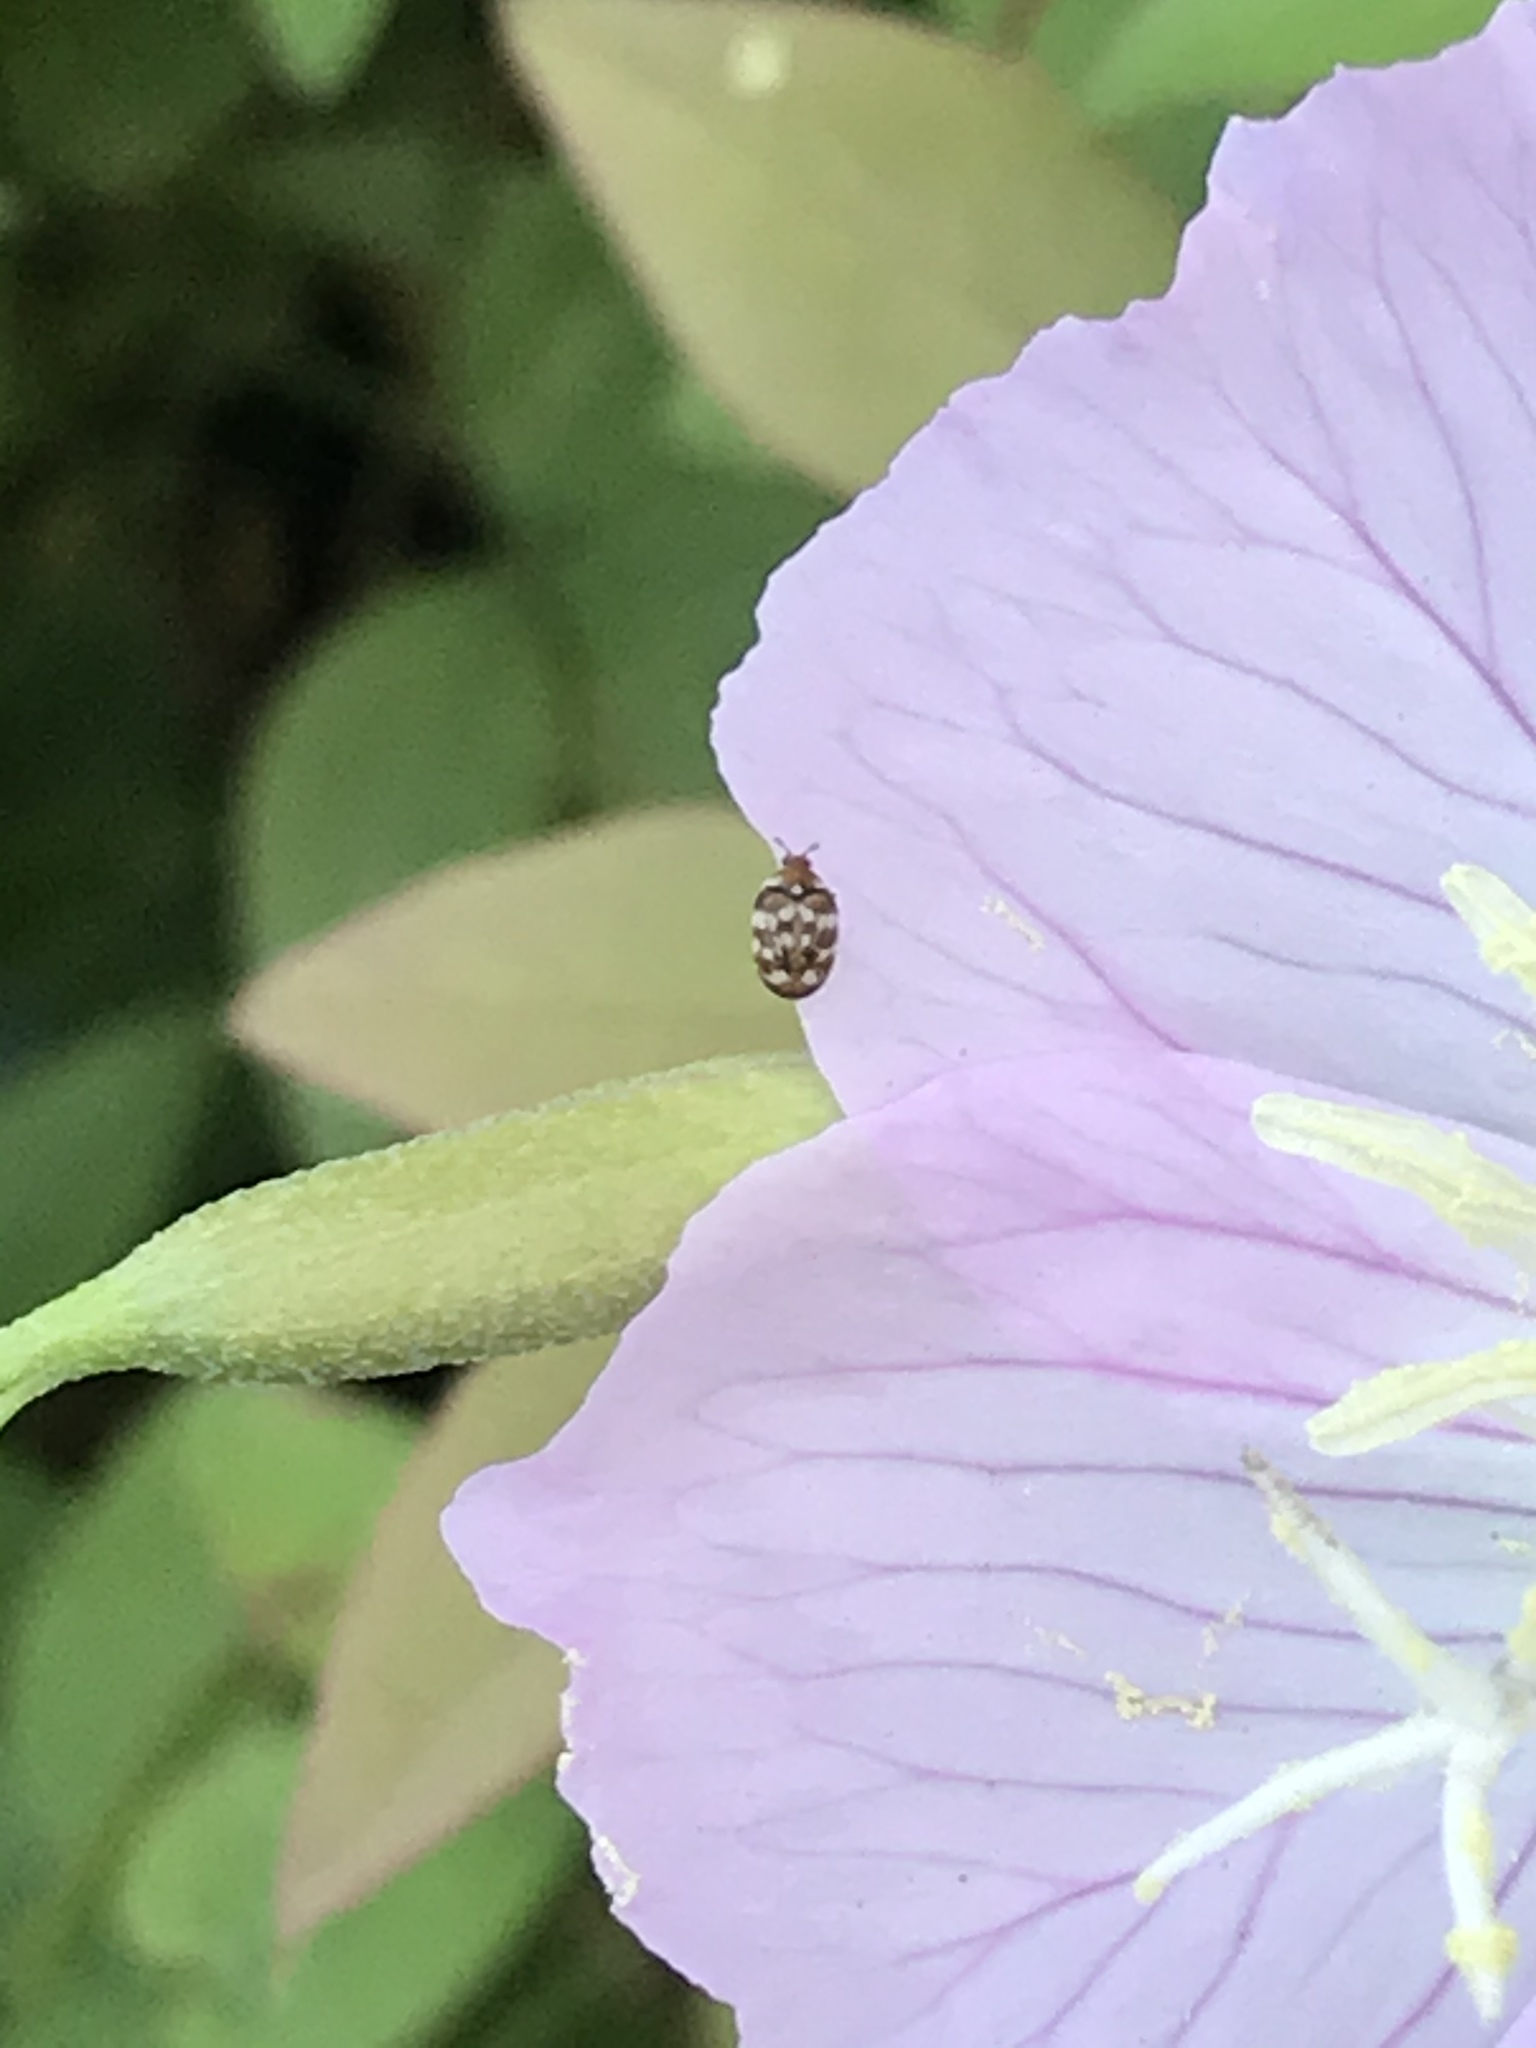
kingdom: Animalia
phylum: Arthropoda
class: Insecta
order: Coleoptera
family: Dermestidae
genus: Anthrenus
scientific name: Anthrenus verbasci
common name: Varied carpet beetle
